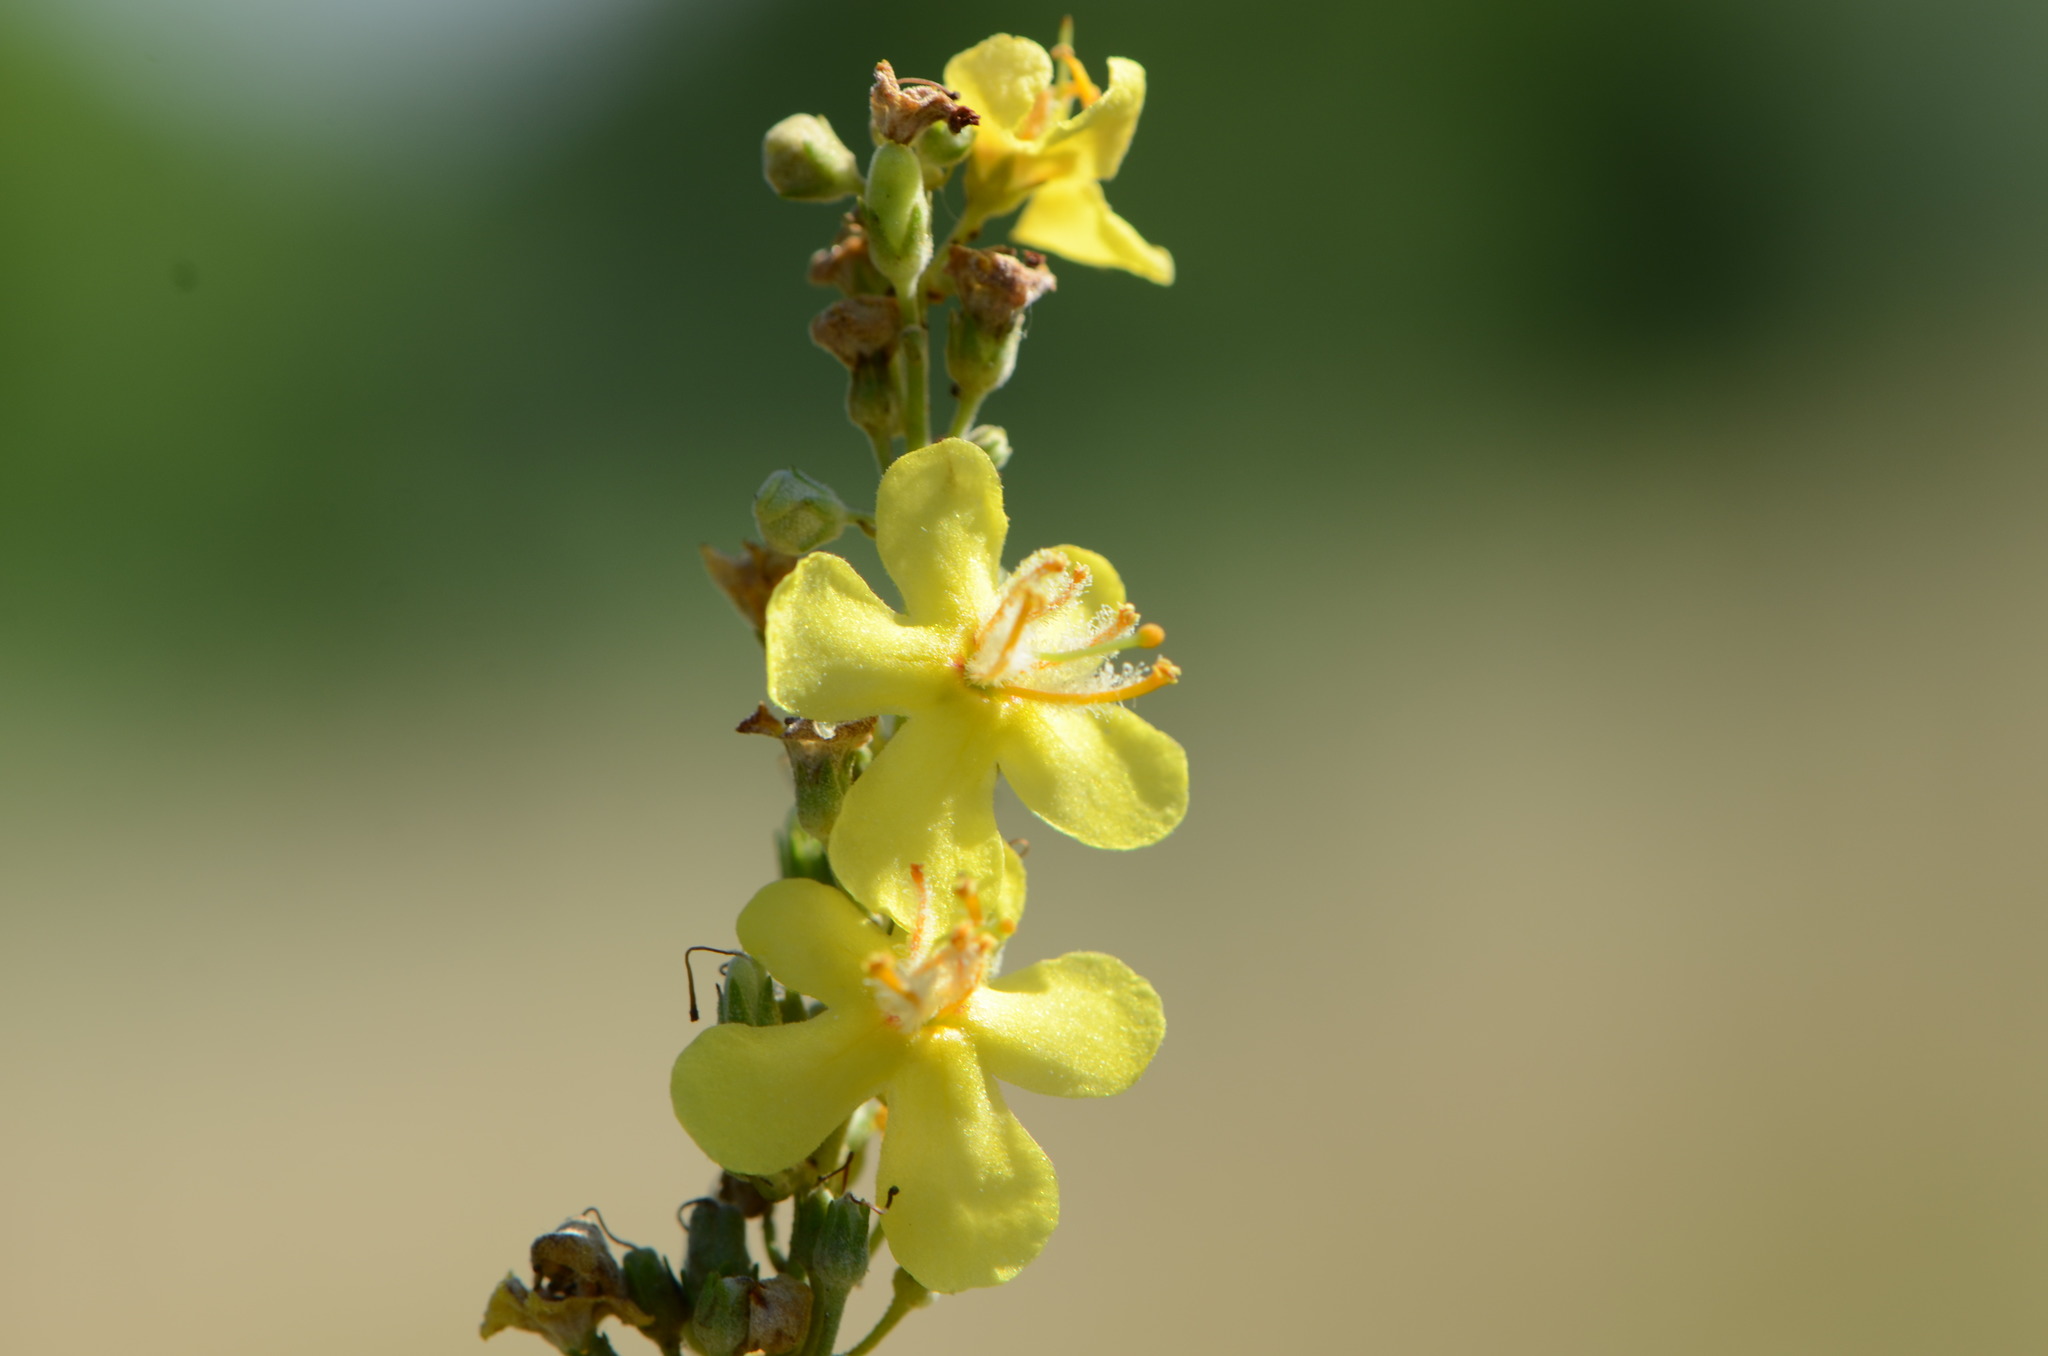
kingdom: Plantae
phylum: Tracheophyta
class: Magnoliopsida
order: Lamiales
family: Scrophulariaceae
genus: Verbascum
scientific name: Verbascum lychnitis
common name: White mullein
